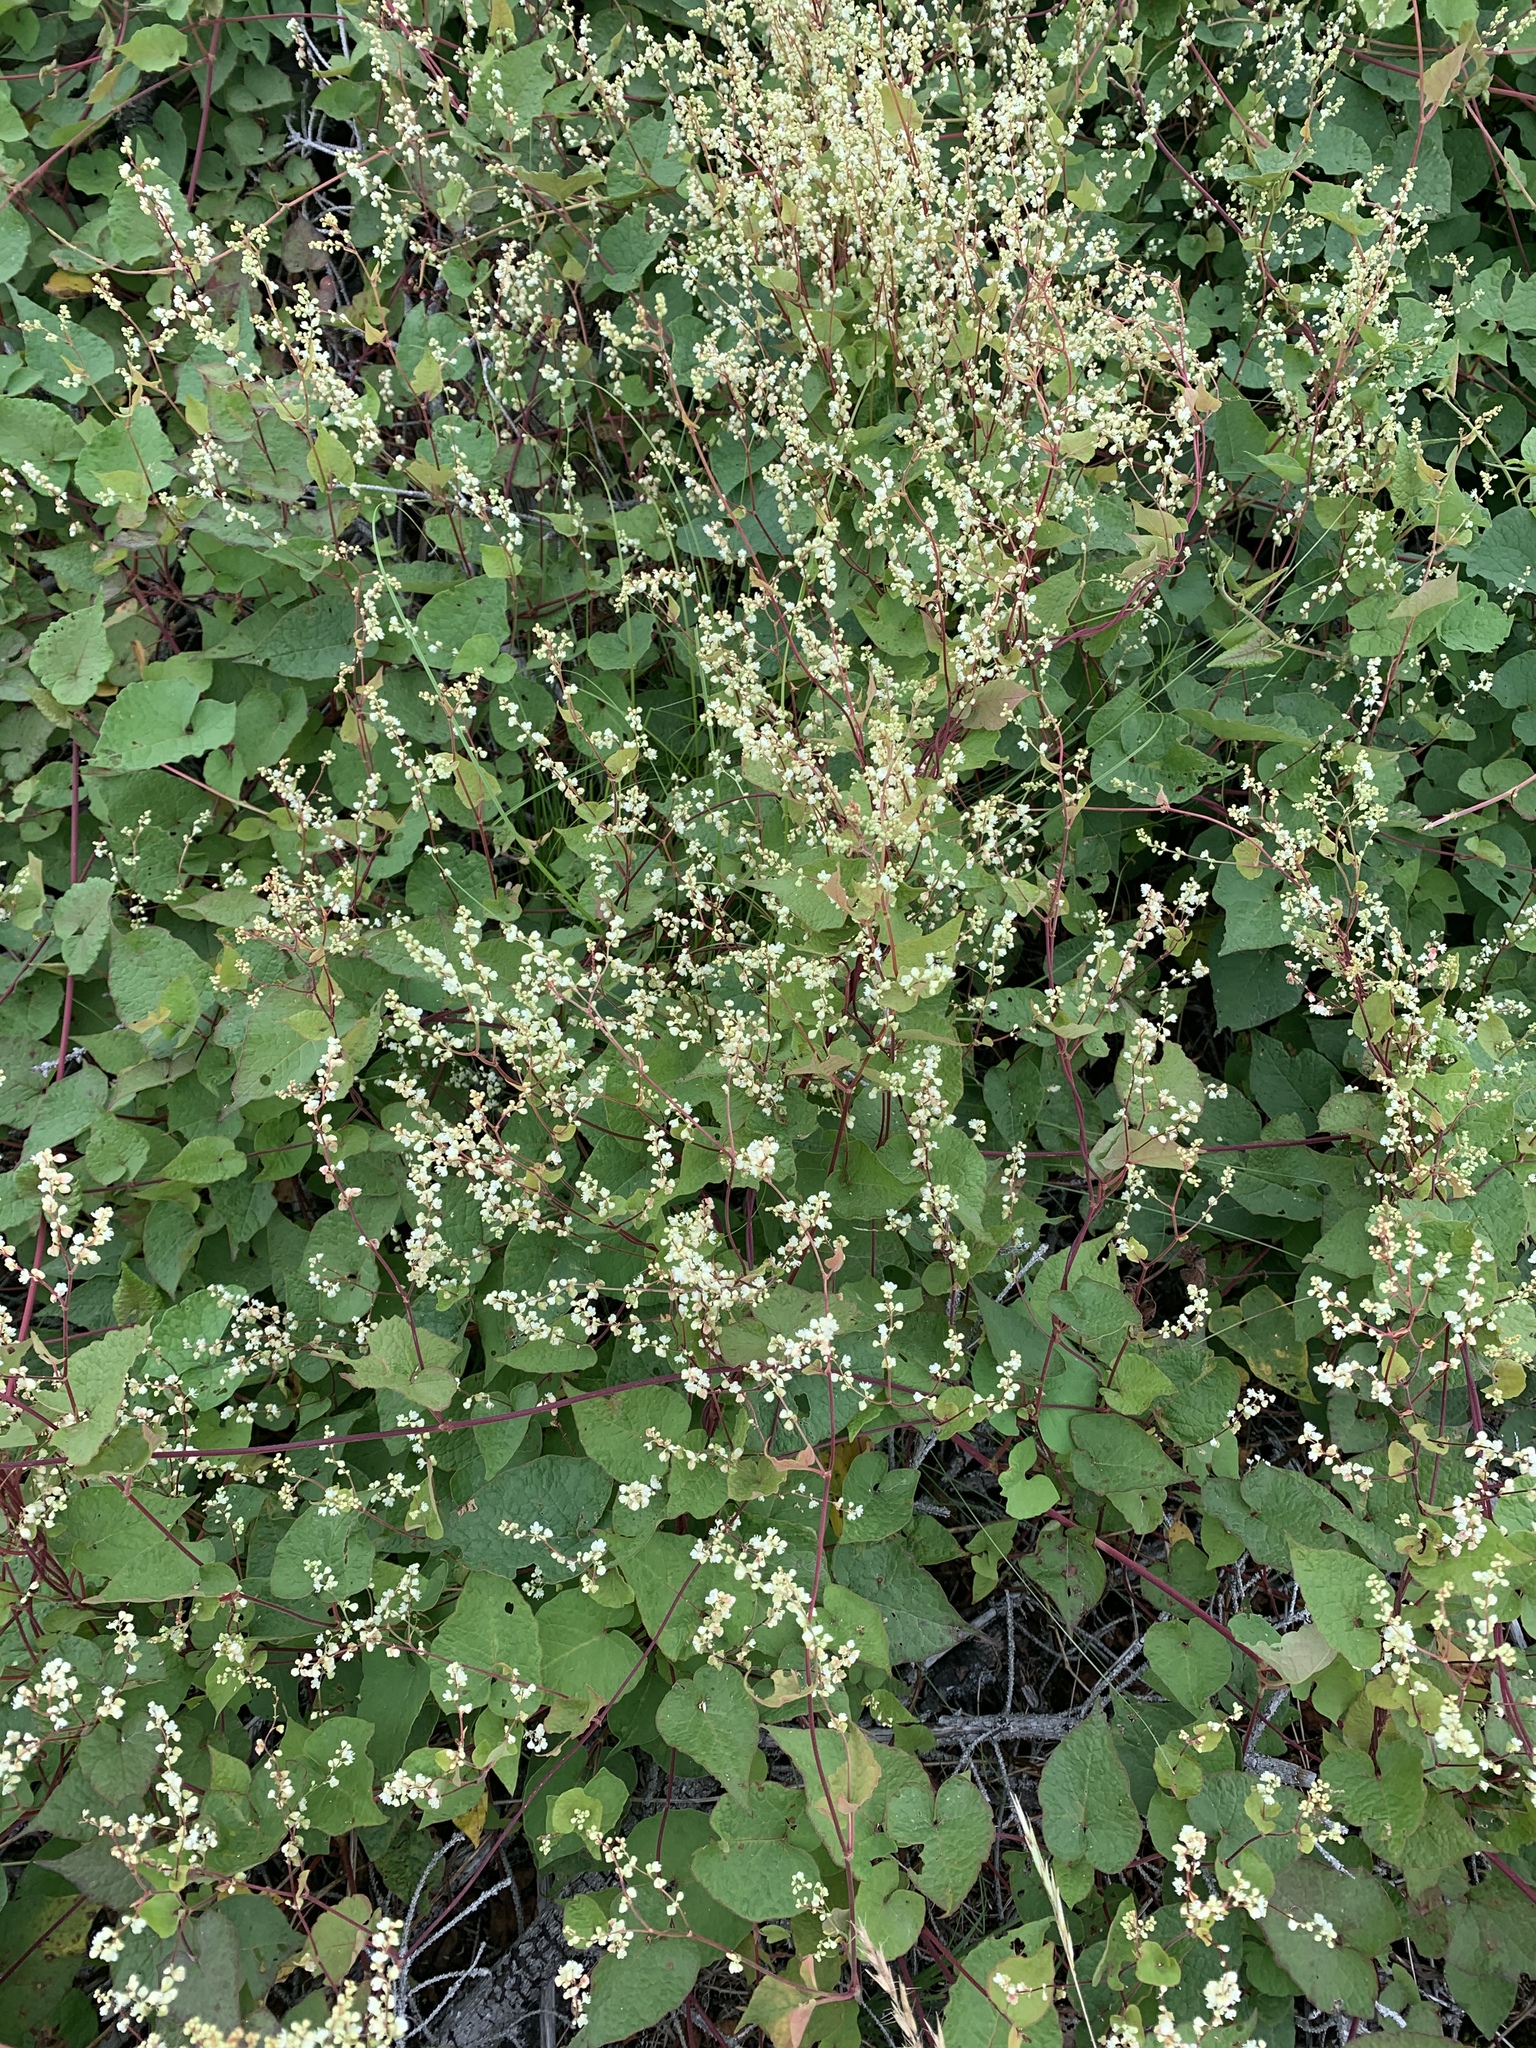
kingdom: Plantae
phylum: Tracheophyta
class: Magnoliopsida
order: Caryophyllales
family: Polygonaceae
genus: Parogonum
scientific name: Parogonum ciliinode
